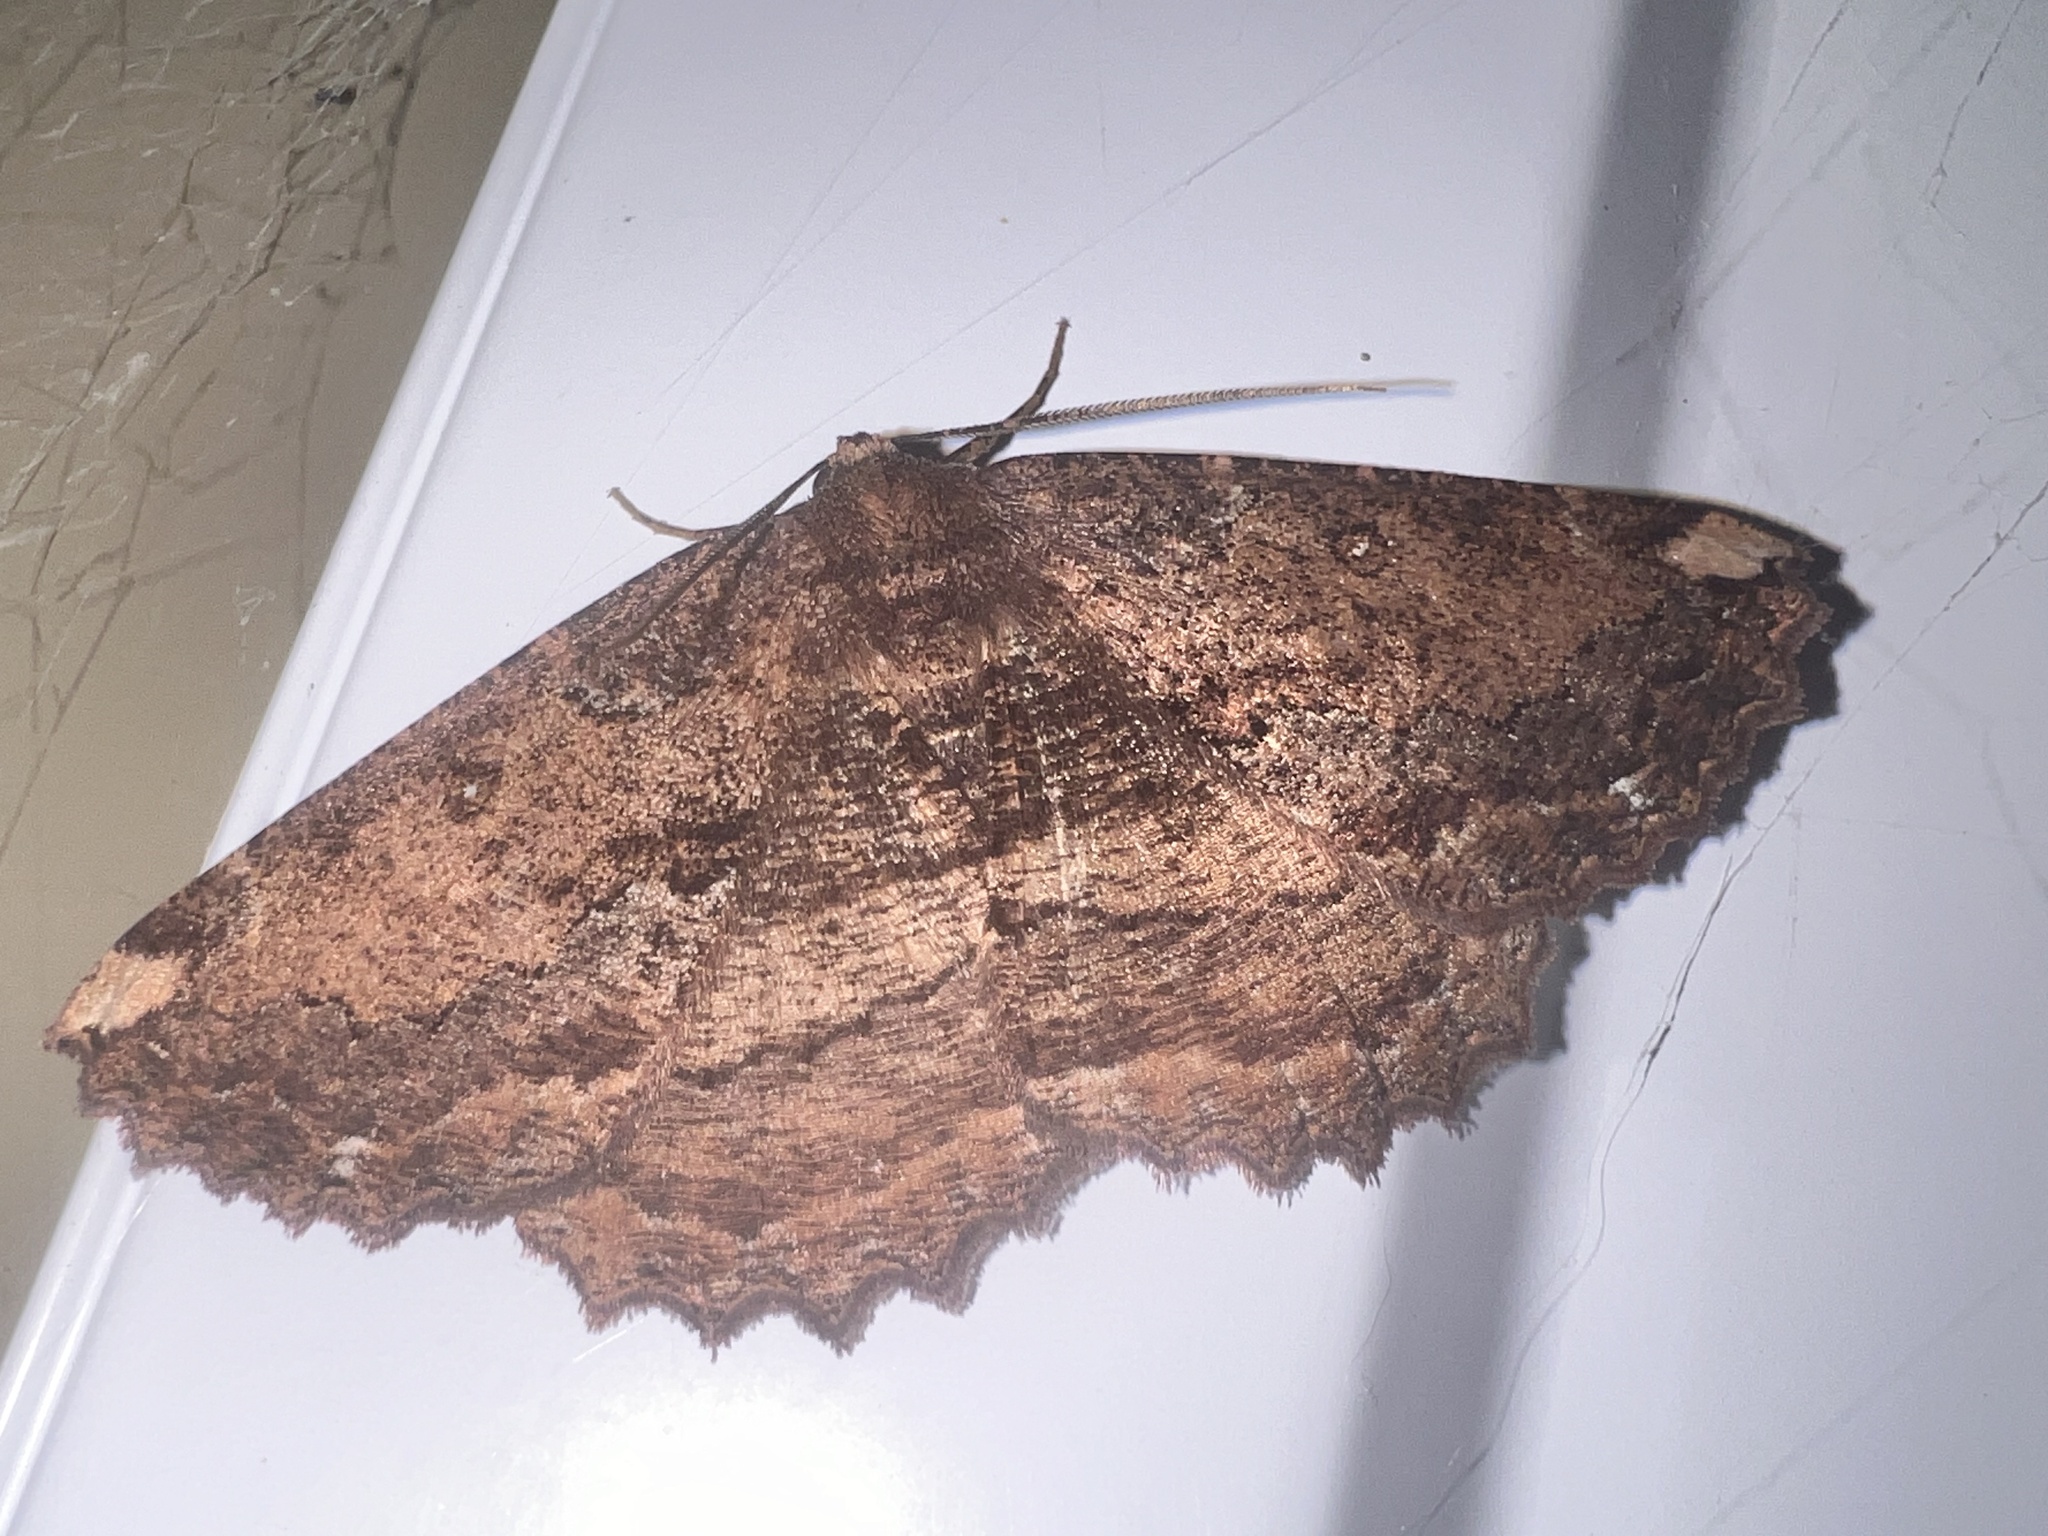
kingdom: Animalia
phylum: Arthropoda
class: Insecta
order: Lepidoptera
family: Geometridae
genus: Gellonia
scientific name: Gellonia dejectaria
